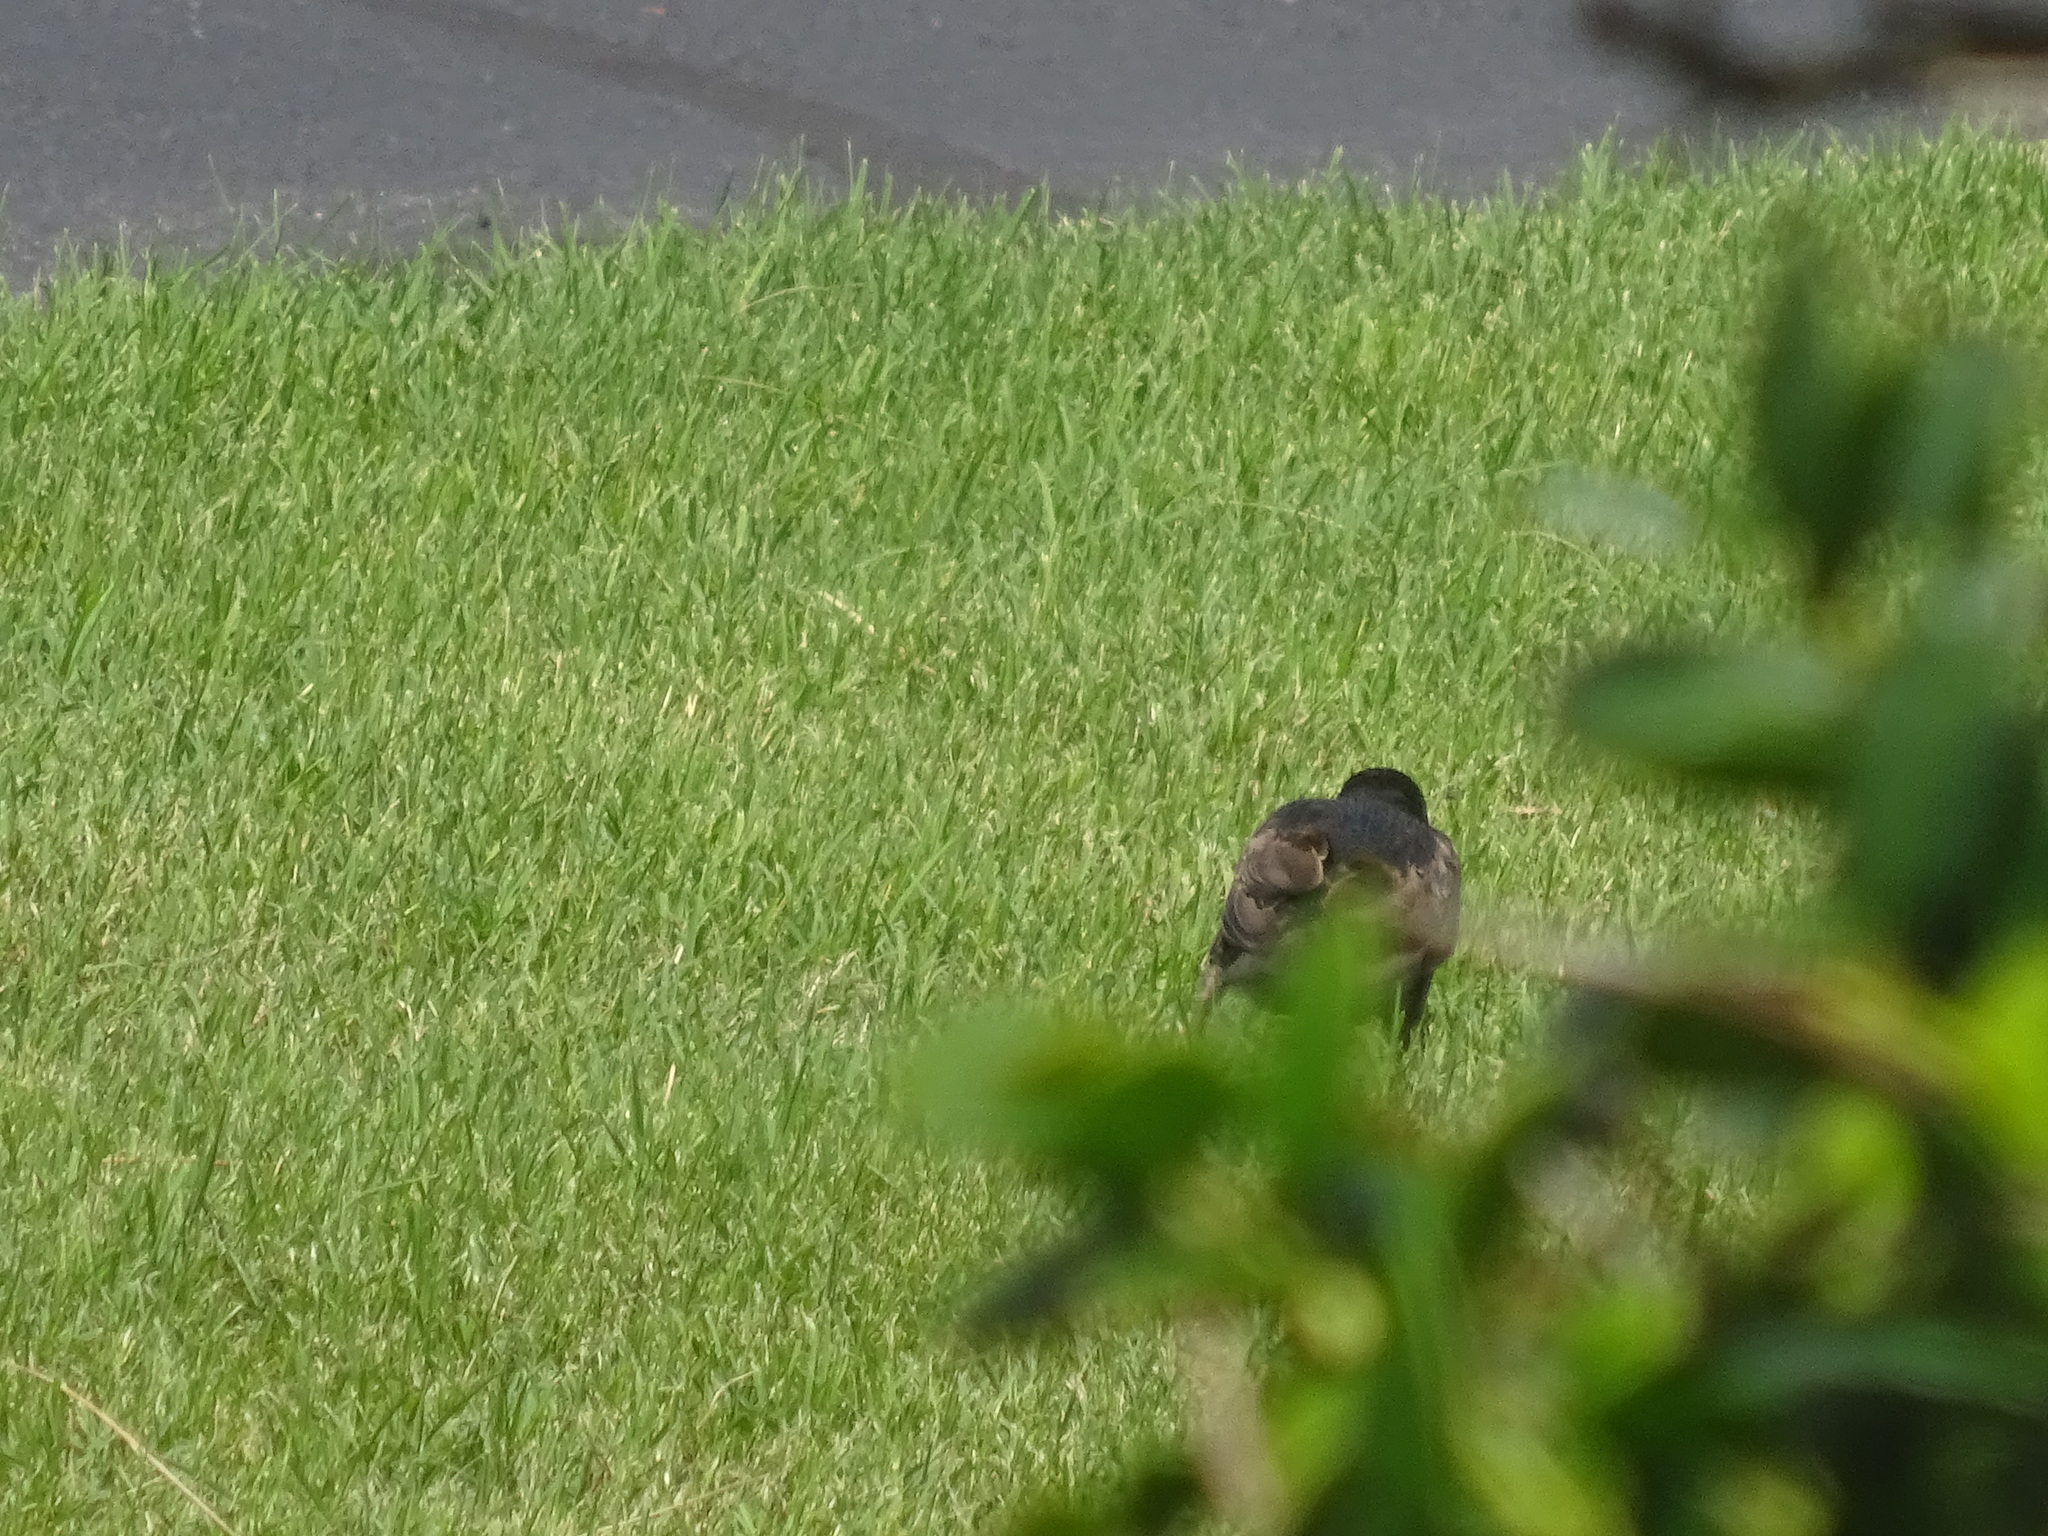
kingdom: Animalia
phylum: Chordata
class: Aves
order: Passeriformes
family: Sturnidae
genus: Sturnus
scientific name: Sturnus vulgaris
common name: Common starling
